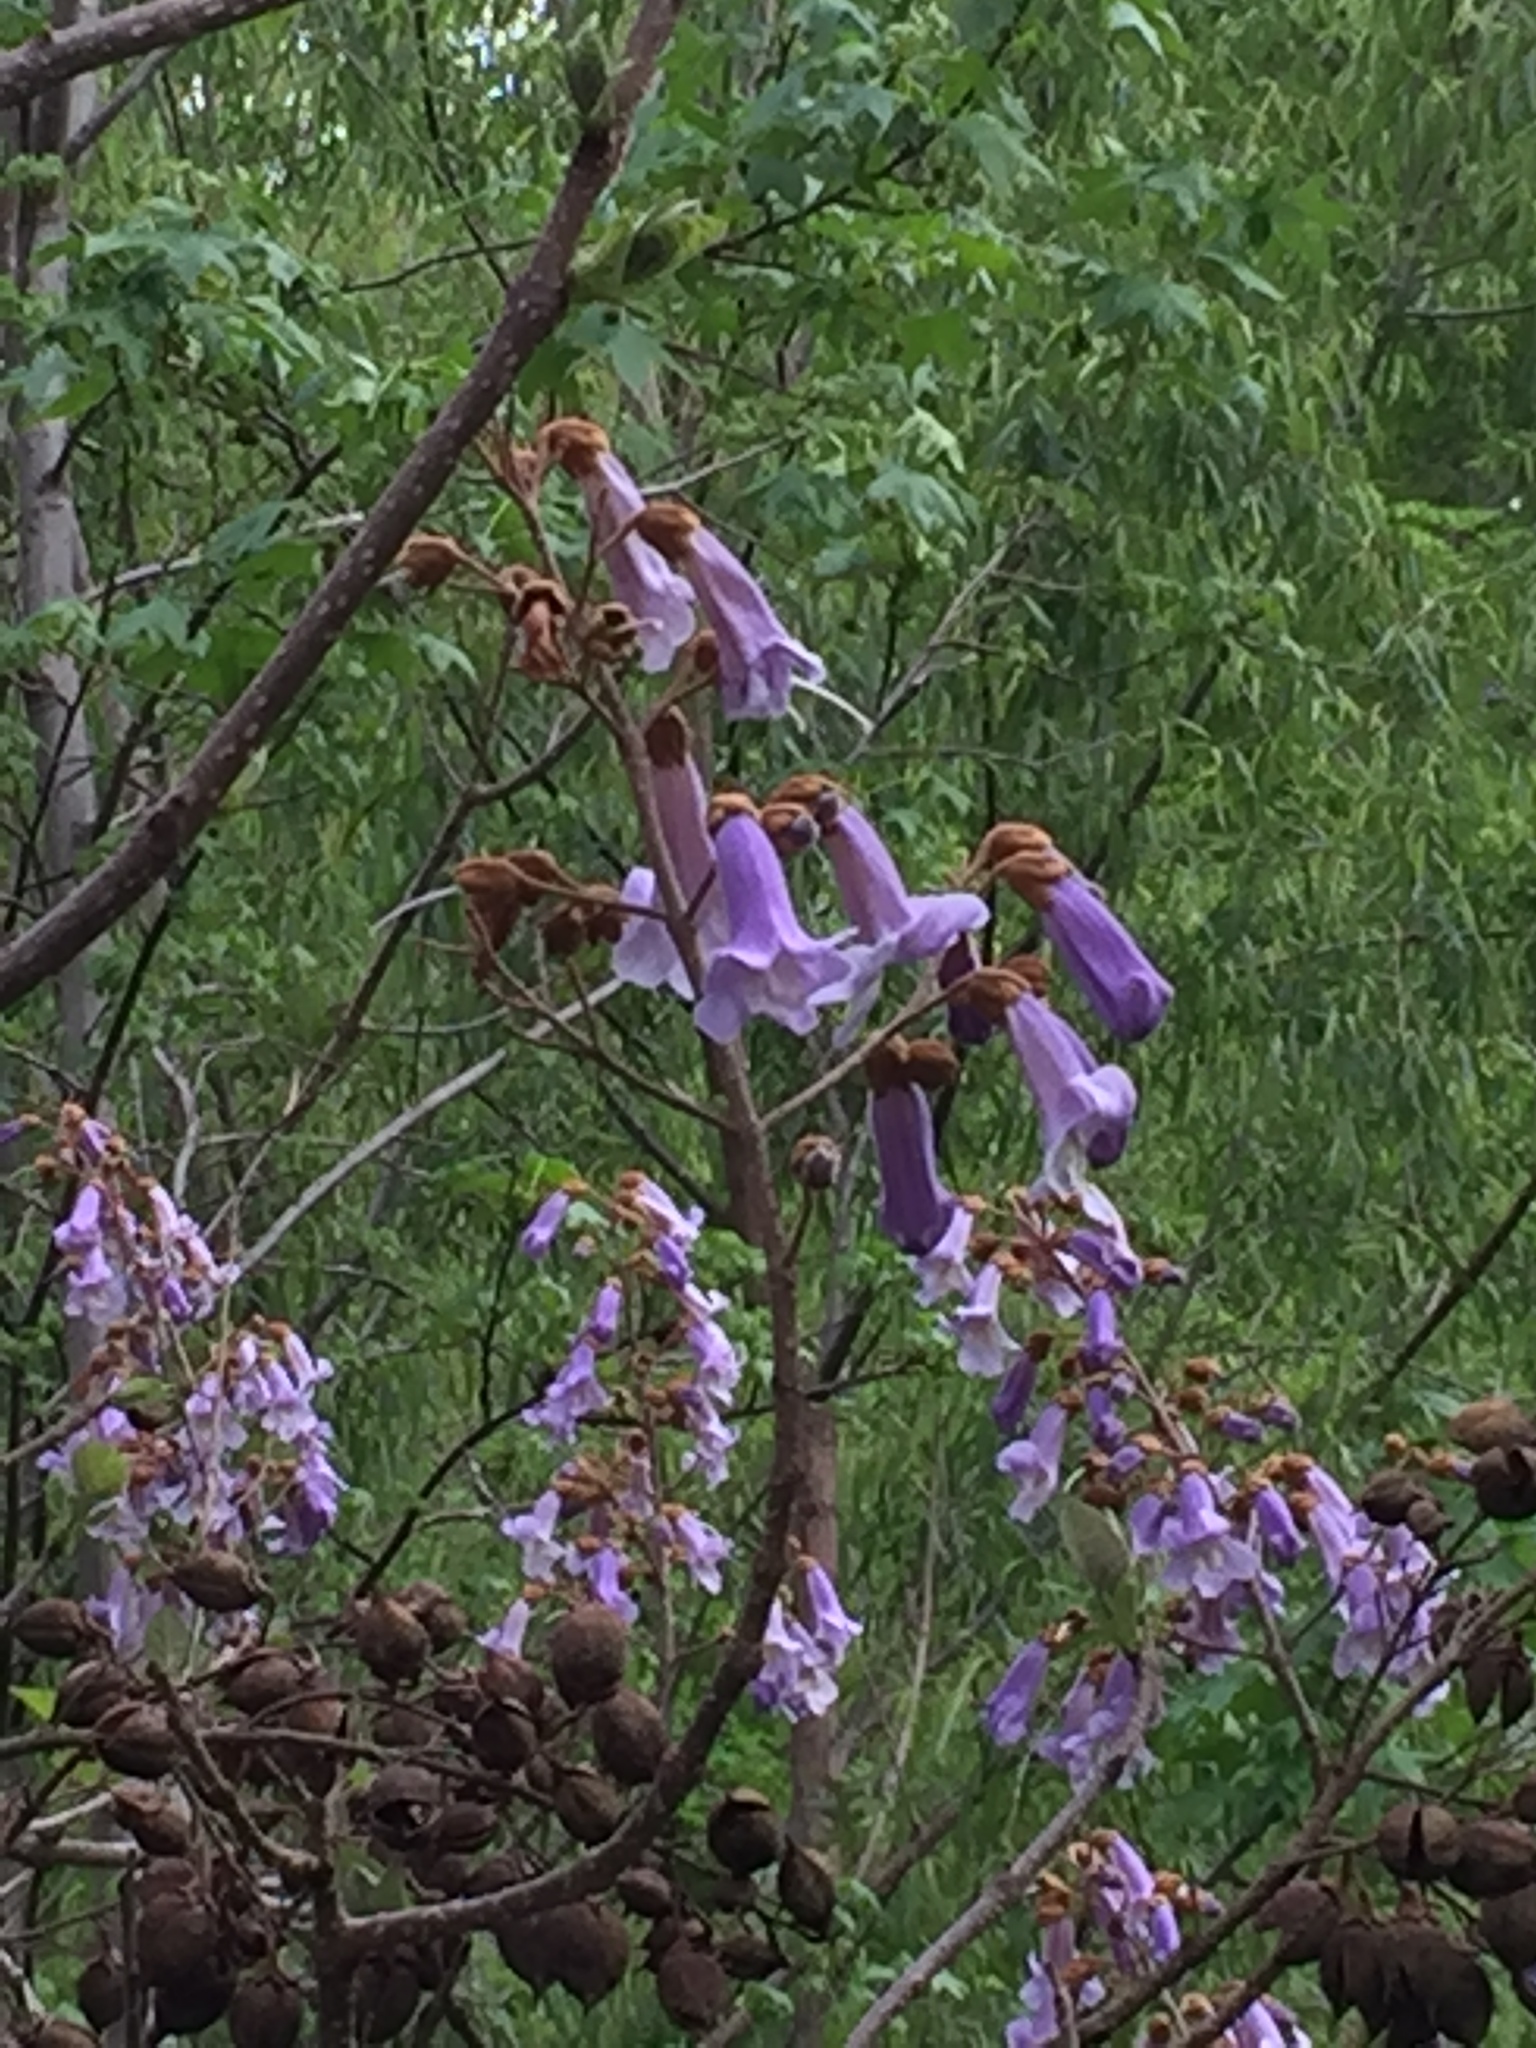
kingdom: Plantae
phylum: Tracheophyta
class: Magnoliopsida
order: Lamiales
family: Paulowniaceae
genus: Paulownia
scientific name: Paulownia tomentosa
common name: Foxglove-tree
